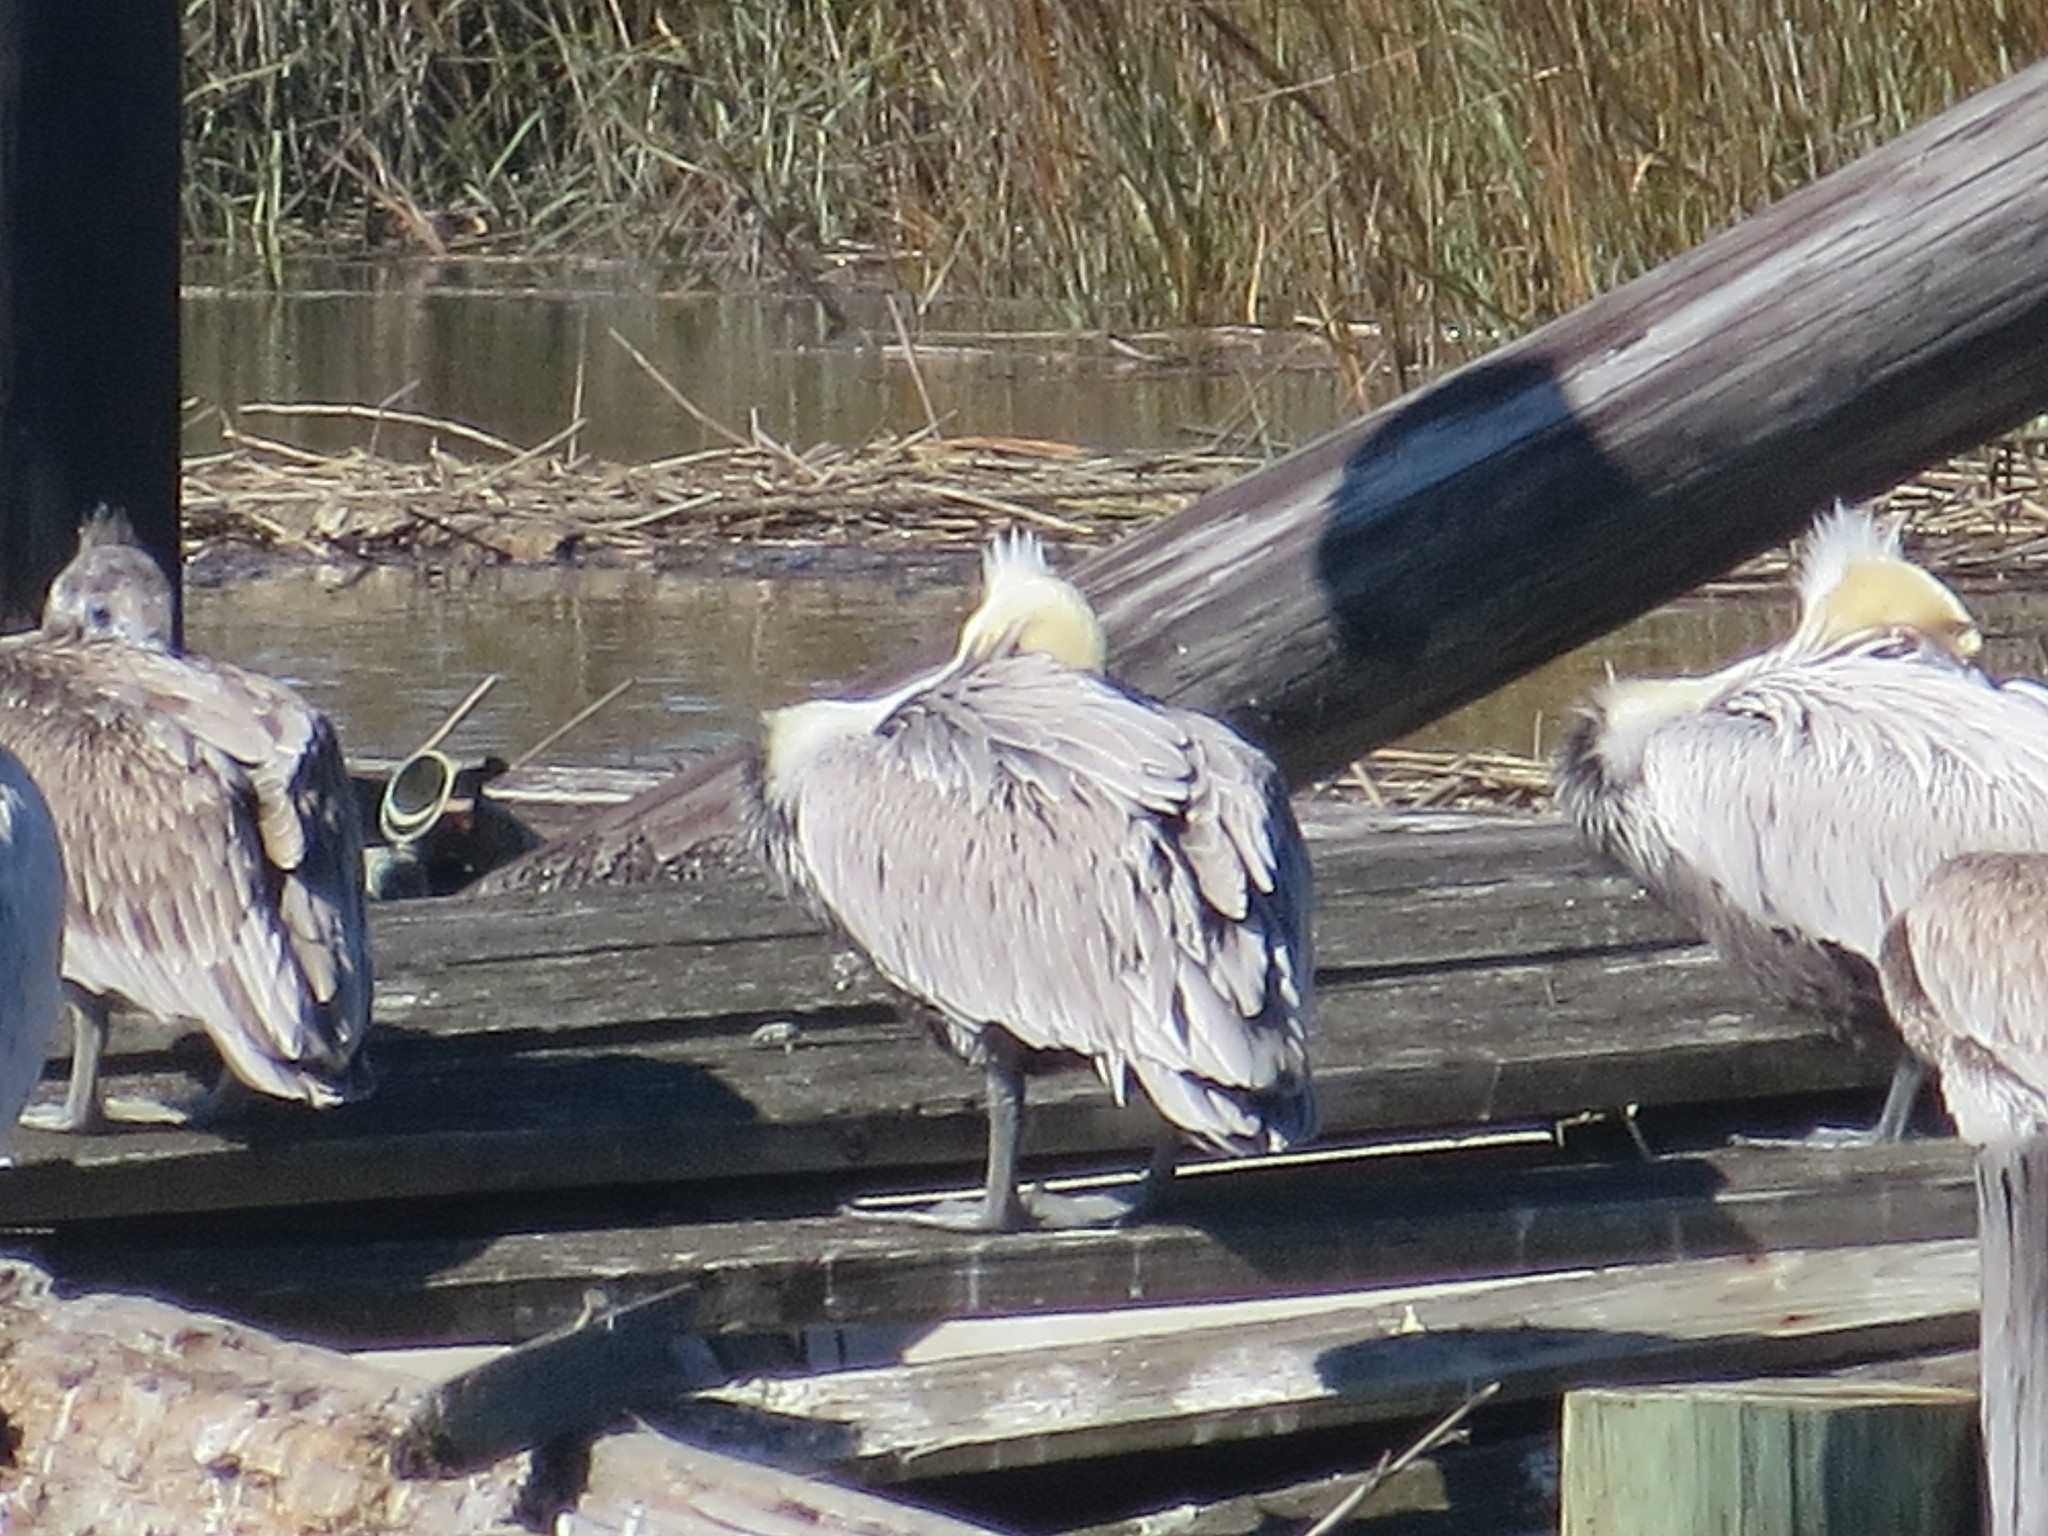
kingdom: Animalia
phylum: Chordata
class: Aves
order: Pelecaniformes
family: Pelecanidae
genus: Pelecanus
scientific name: Pelecanus occidentalis
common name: Brown pelican
